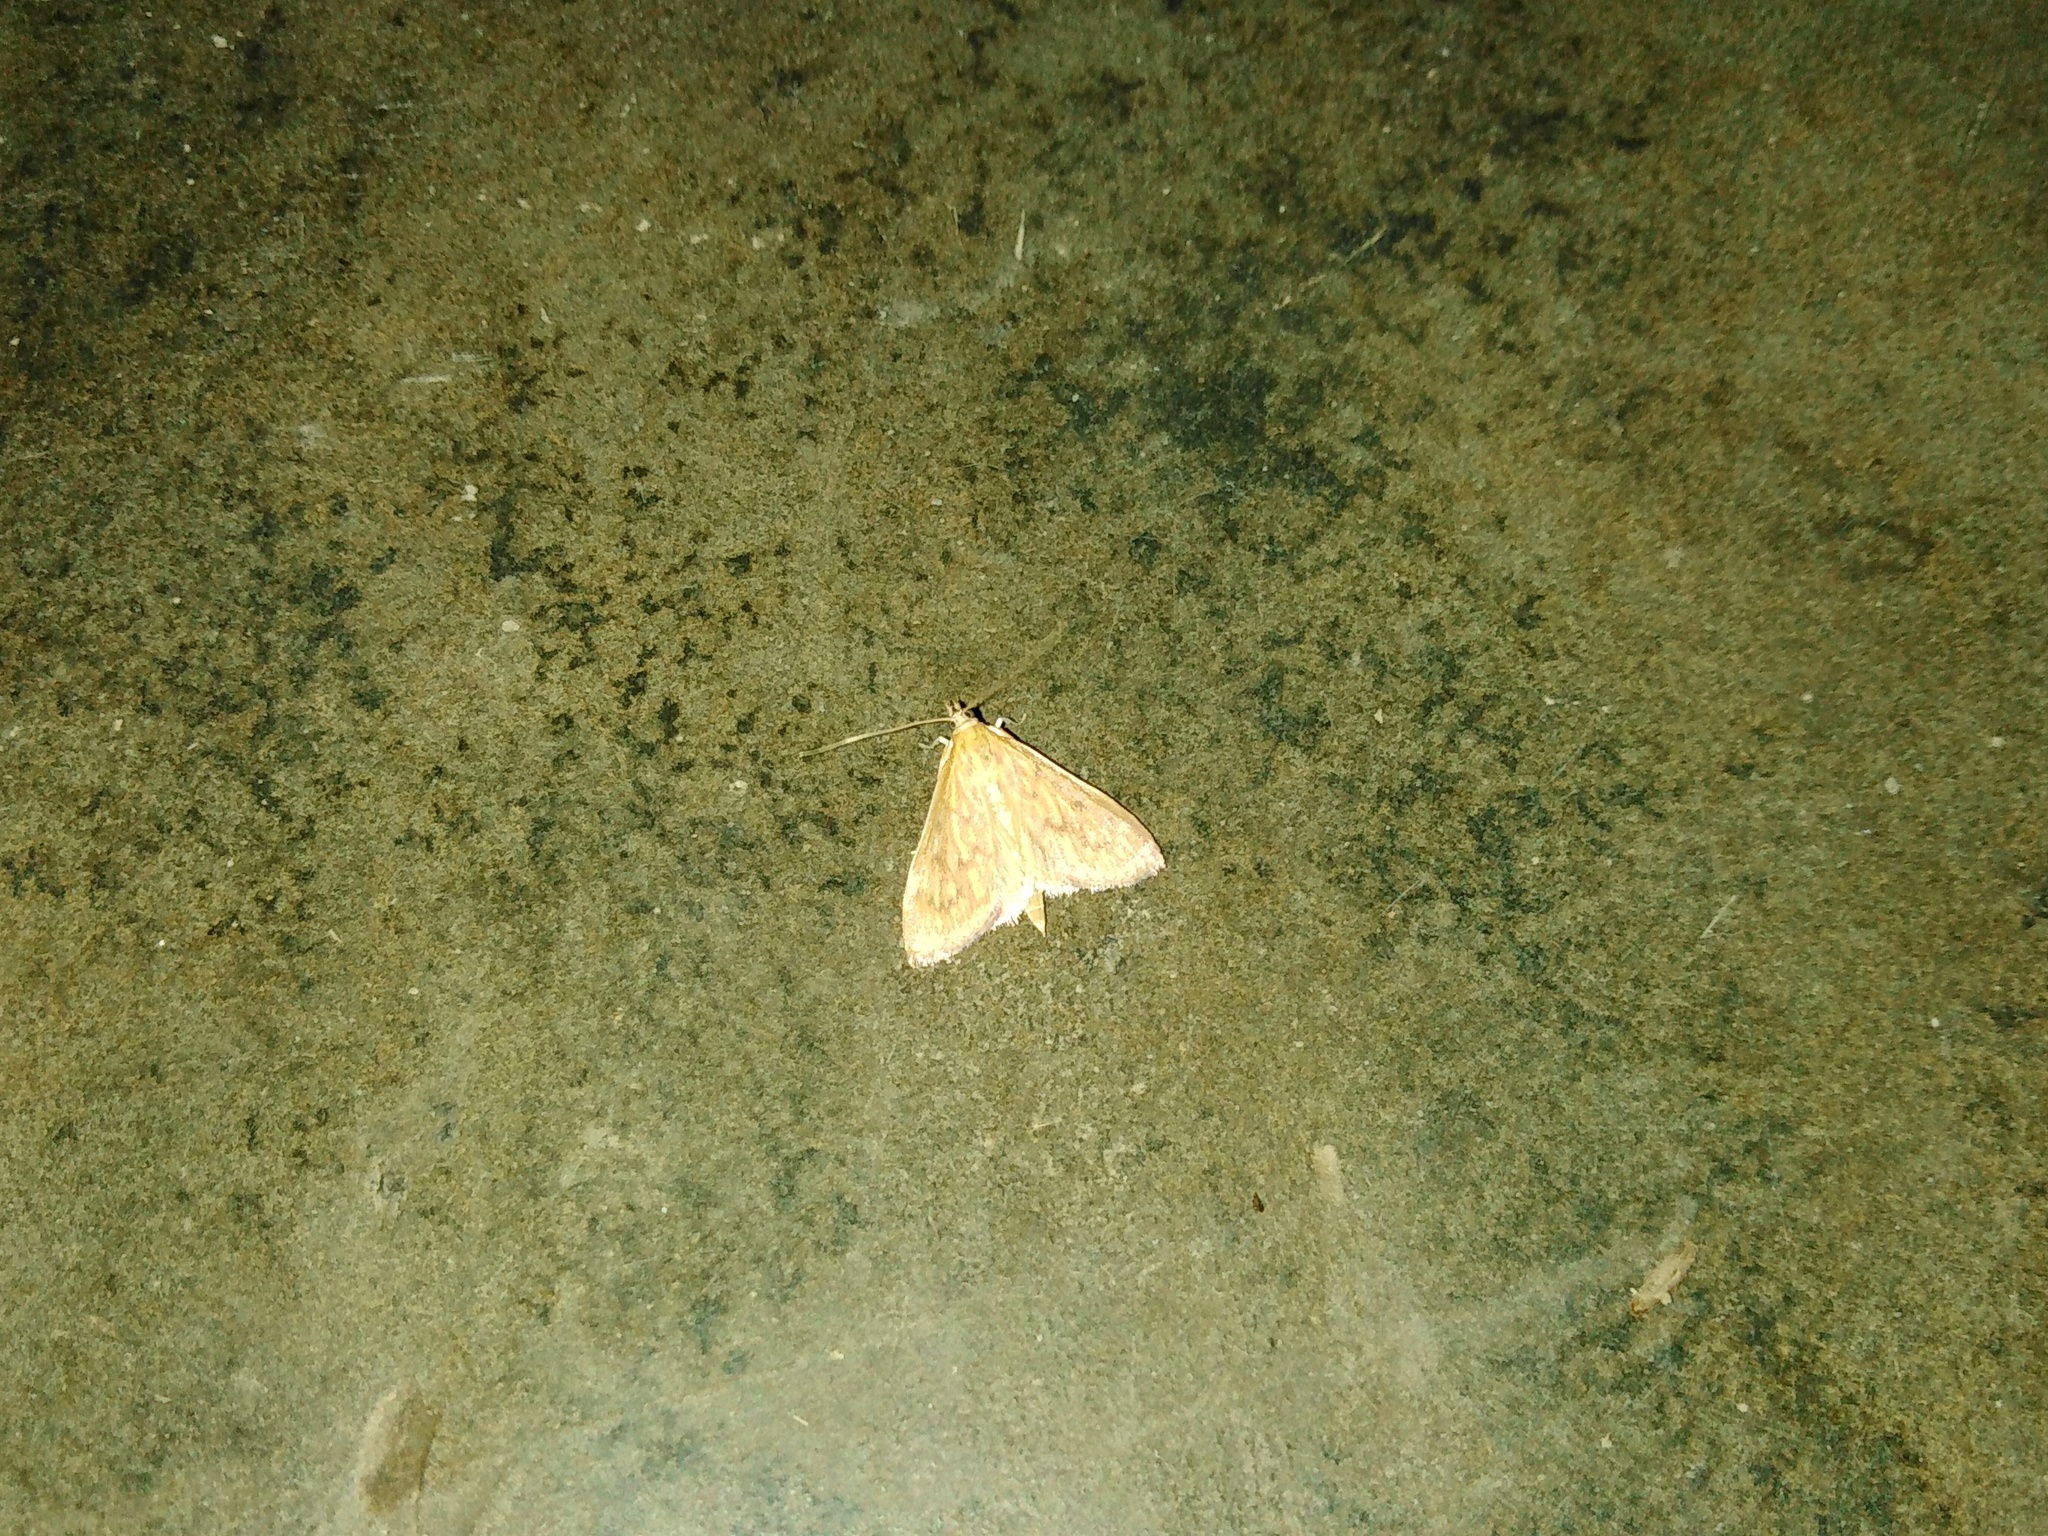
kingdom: Animalia
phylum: Arthropoda
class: Insecta
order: Lepidoptera
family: Crambidae
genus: Paliga
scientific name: Paliga damastesalis
